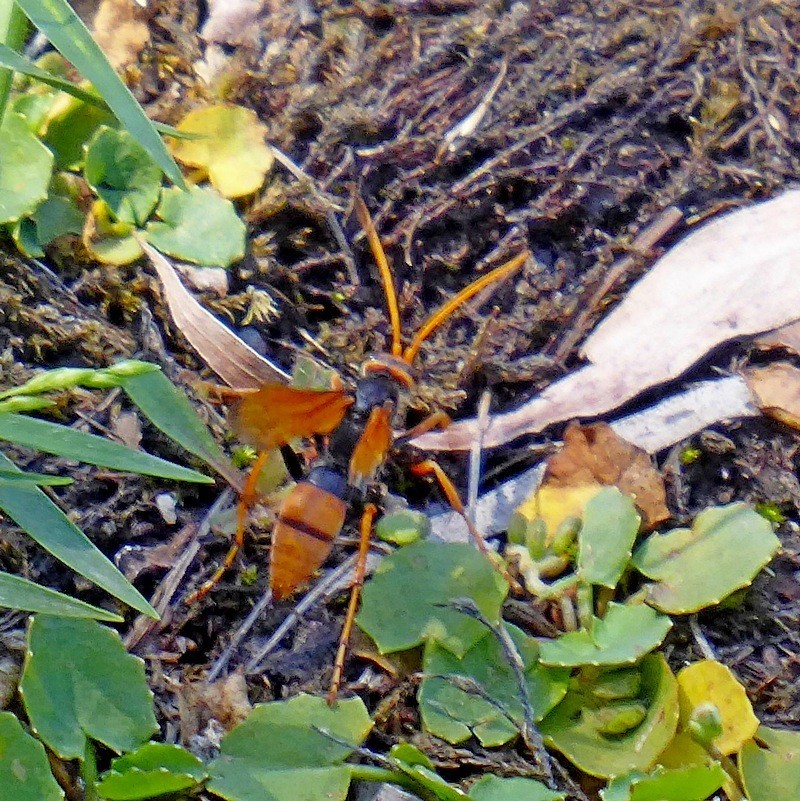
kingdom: Animalia
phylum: Arthropoda
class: Insecta
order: Hymenoptera
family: Pompilidae
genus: Cryptocheilus
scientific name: Cryptocheilus australis
